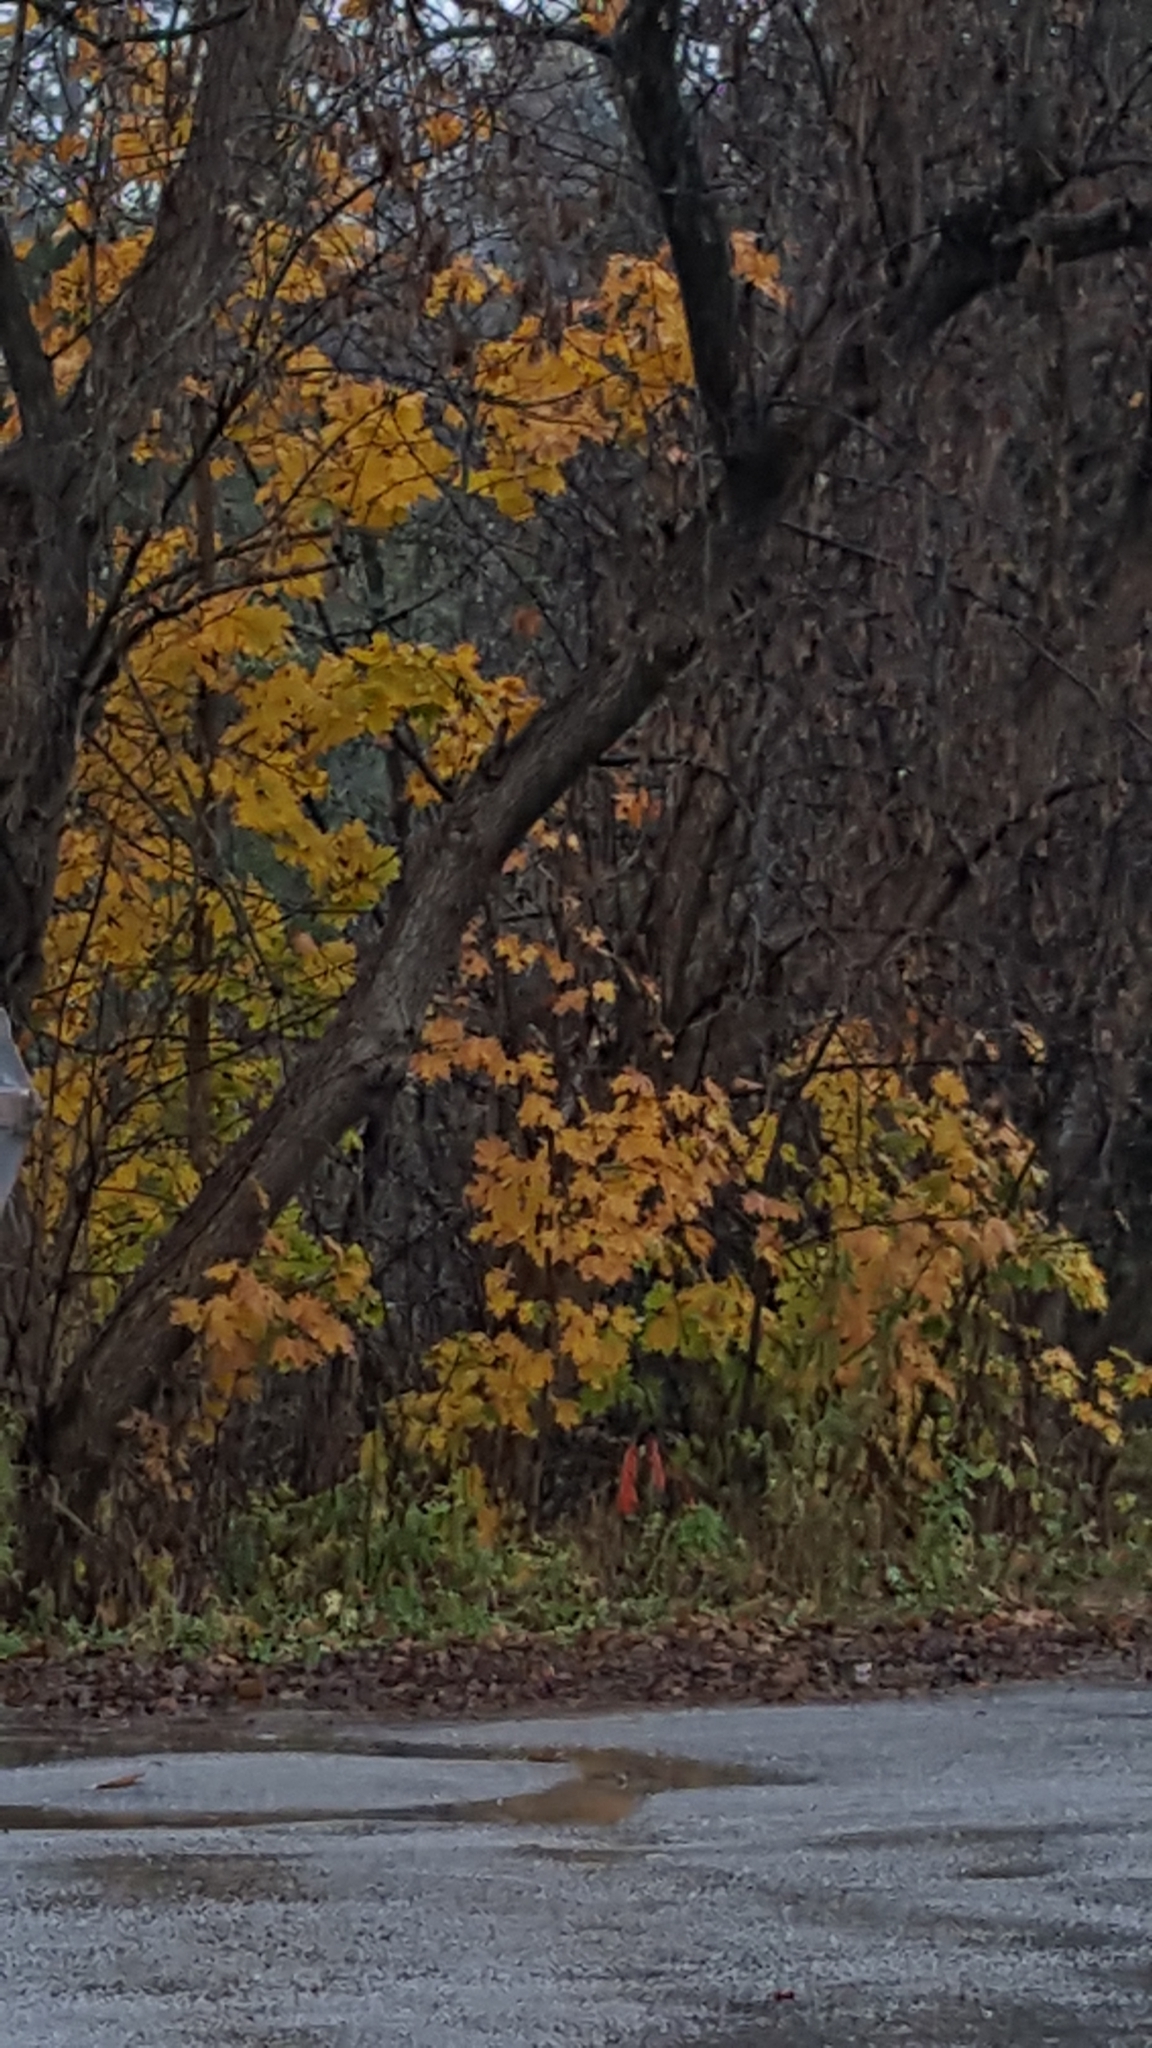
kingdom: Plantae
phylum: Tracheophyta
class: Magnoliopsida
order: Sapindales
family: Sapindaceae
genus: Acer
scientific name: Acer platanoides
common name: Norway maple
